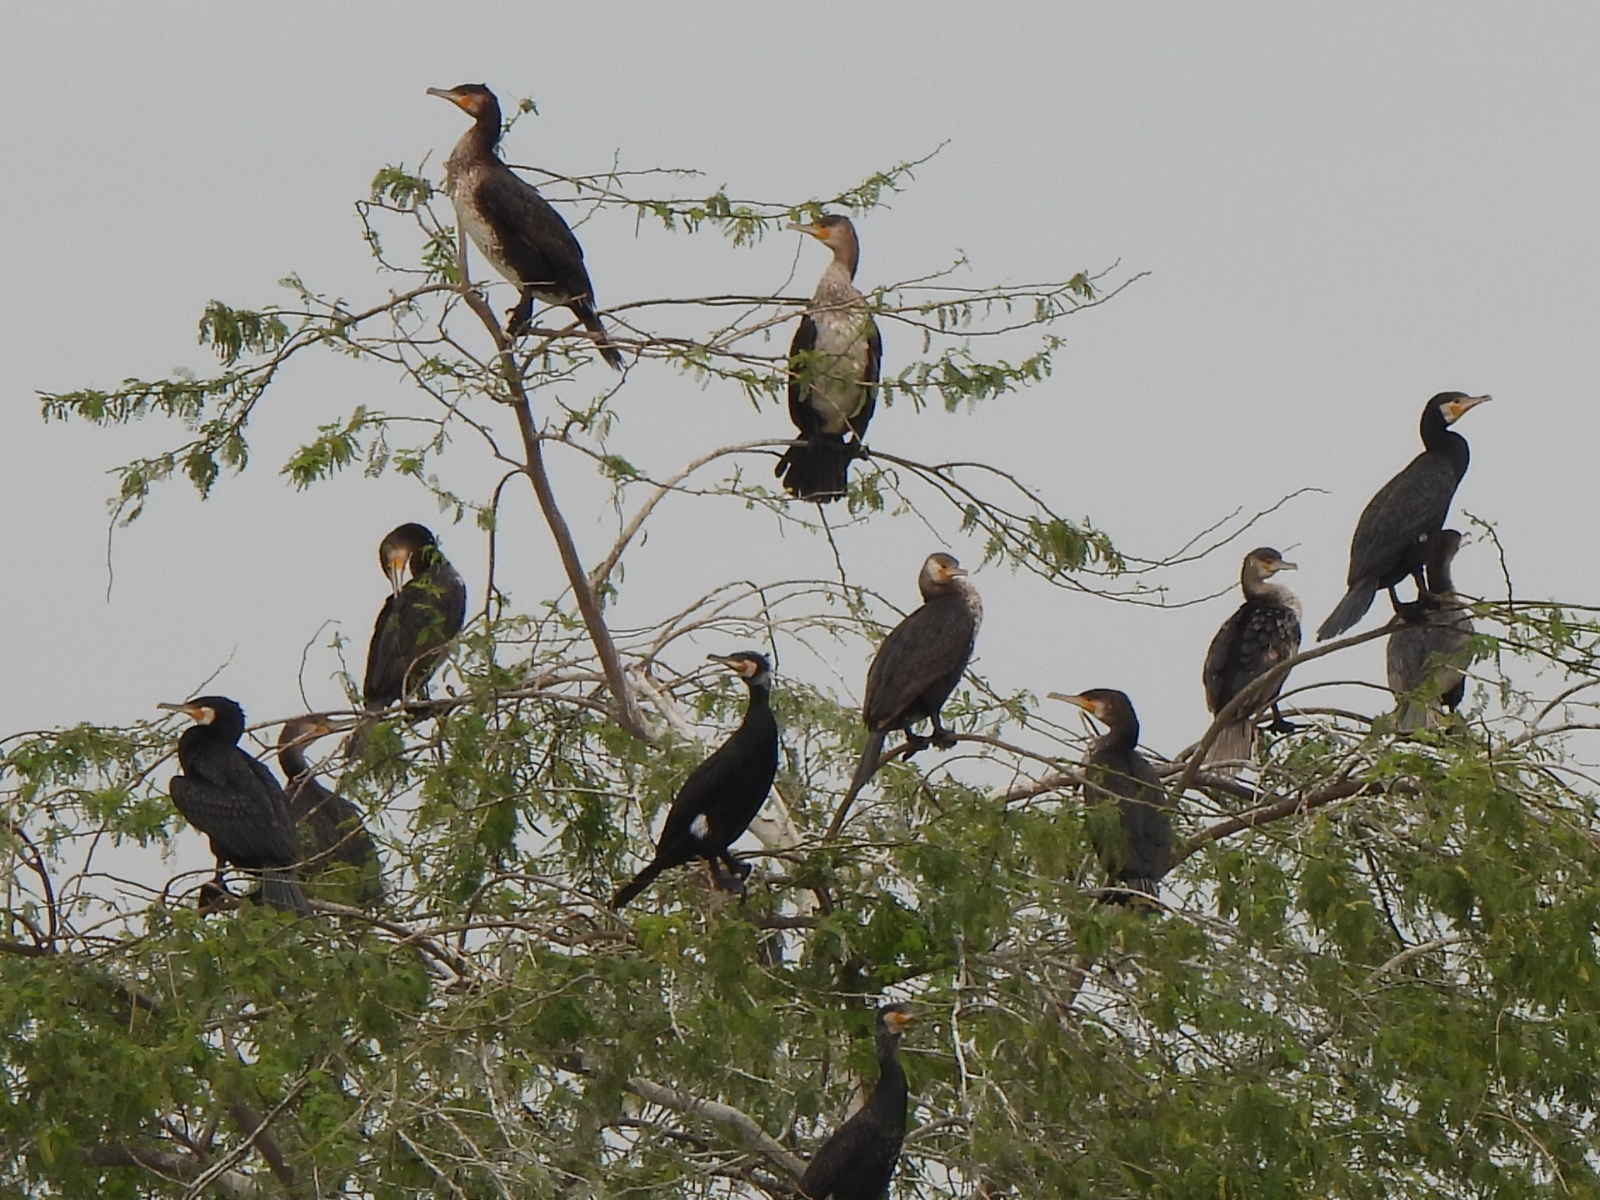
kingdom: Animalia
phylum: Chordata
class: Aves
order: Suliformes
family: Phalacrocoracidae
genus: Phalacrocorax
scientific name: Phalacrocorax carbo
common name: Great cormorant
